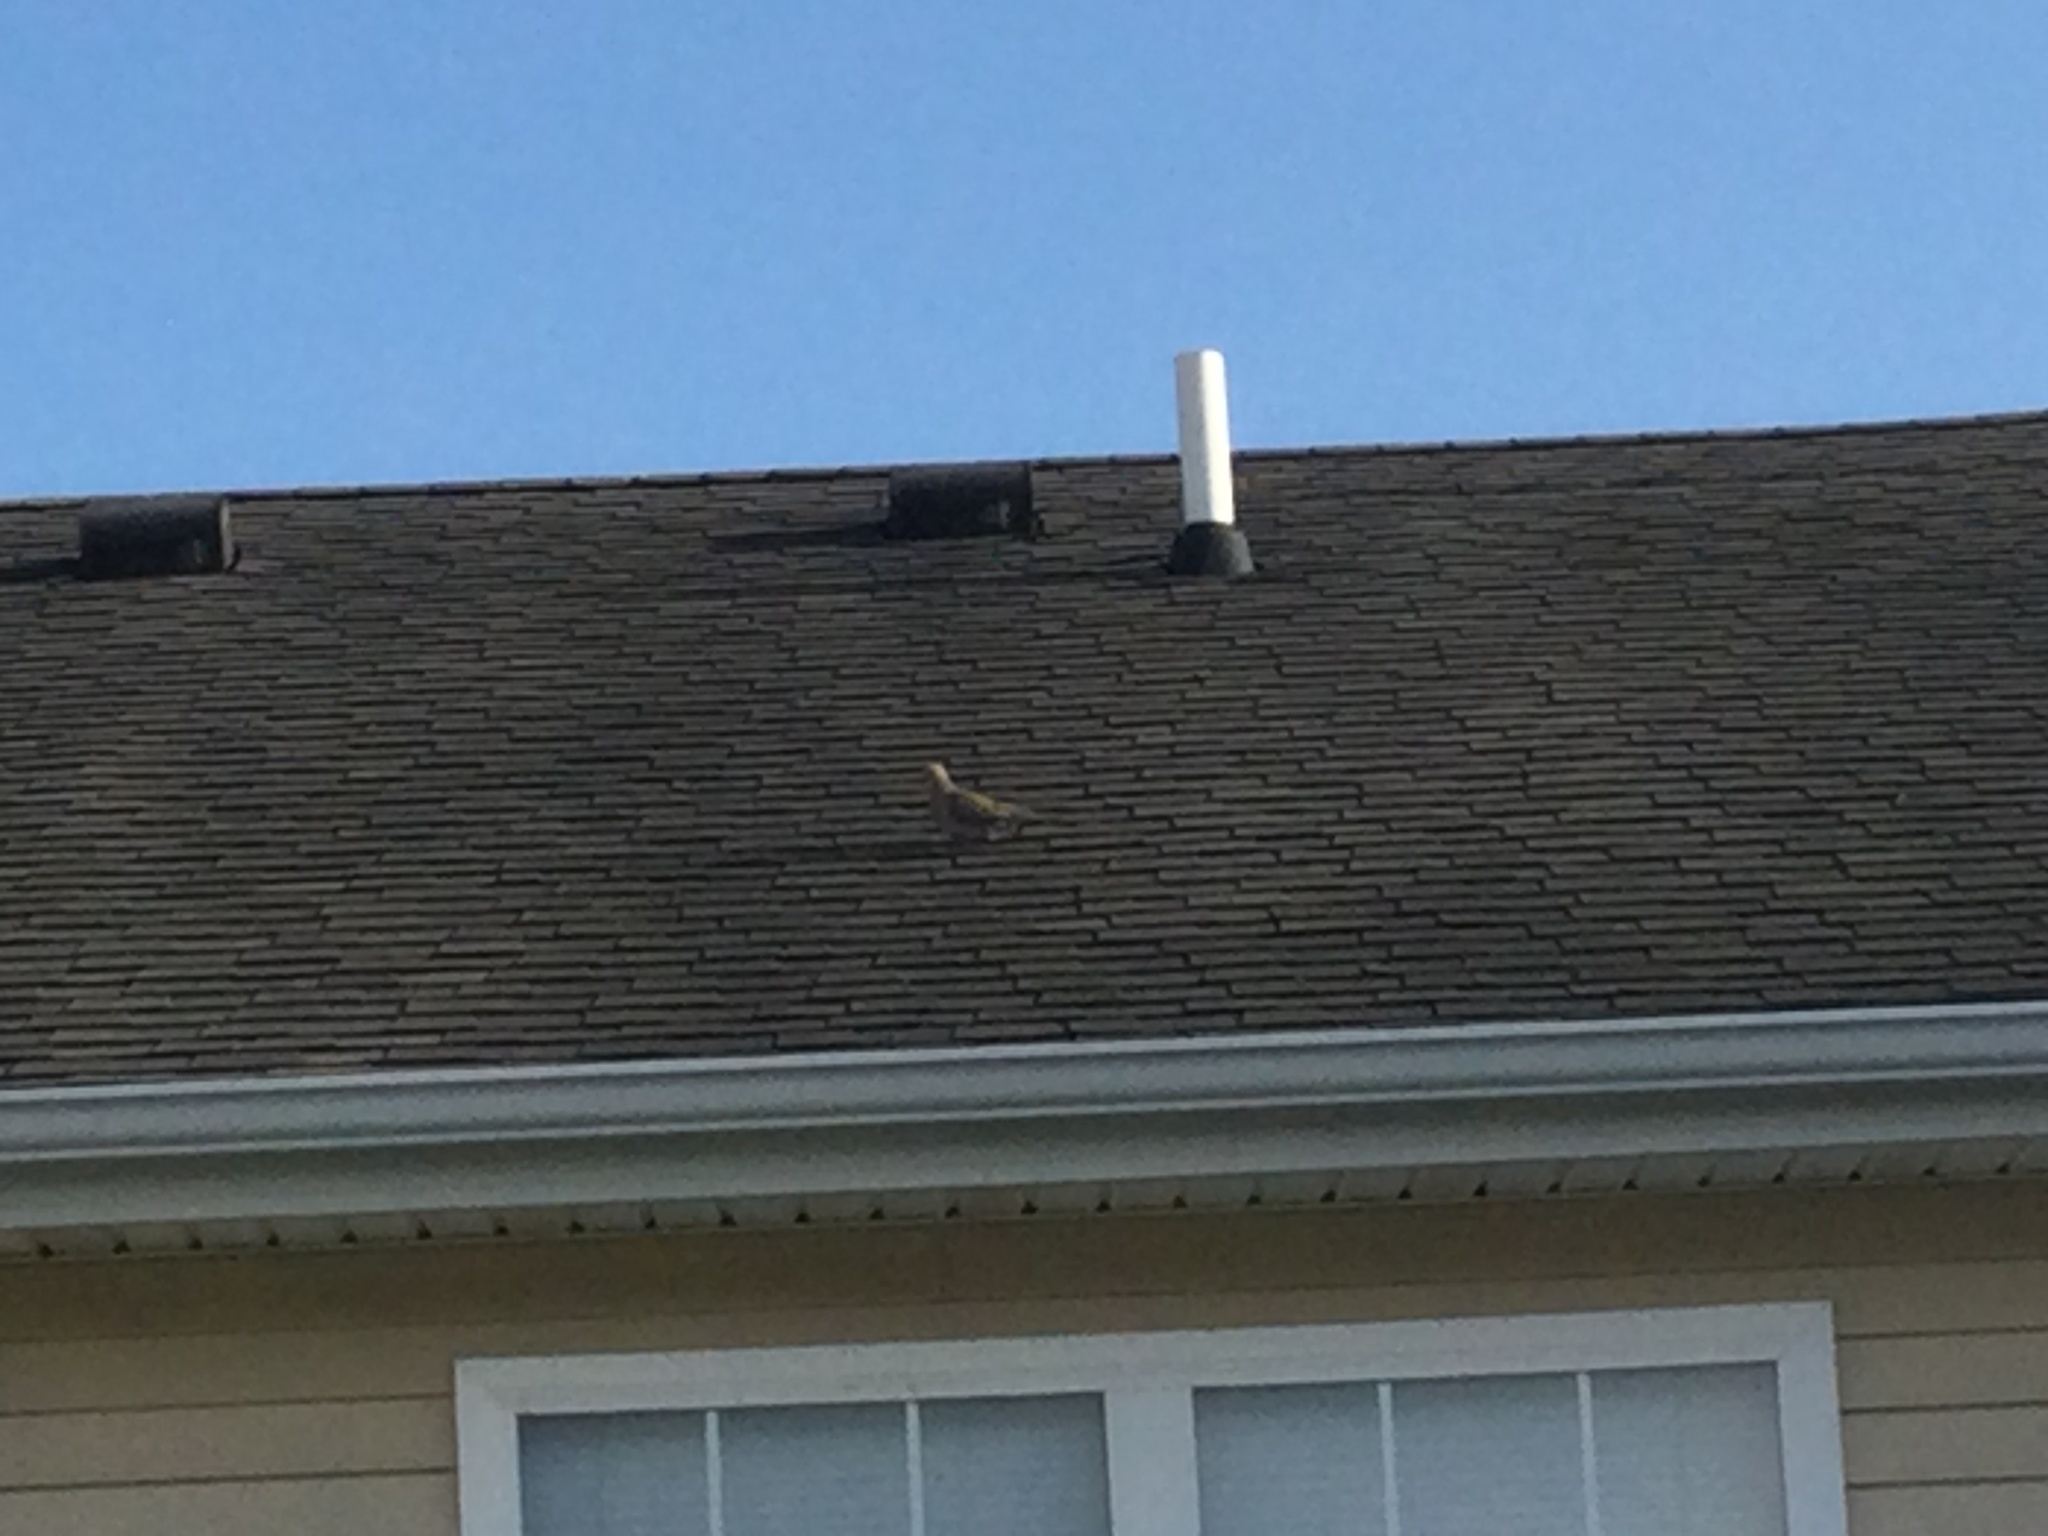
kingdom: Animalia
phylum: Chordata
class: Aves
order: Columbiformes
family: Columbidae
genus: Zenaida
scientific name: Zenaida macroura
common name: Mourning dove
